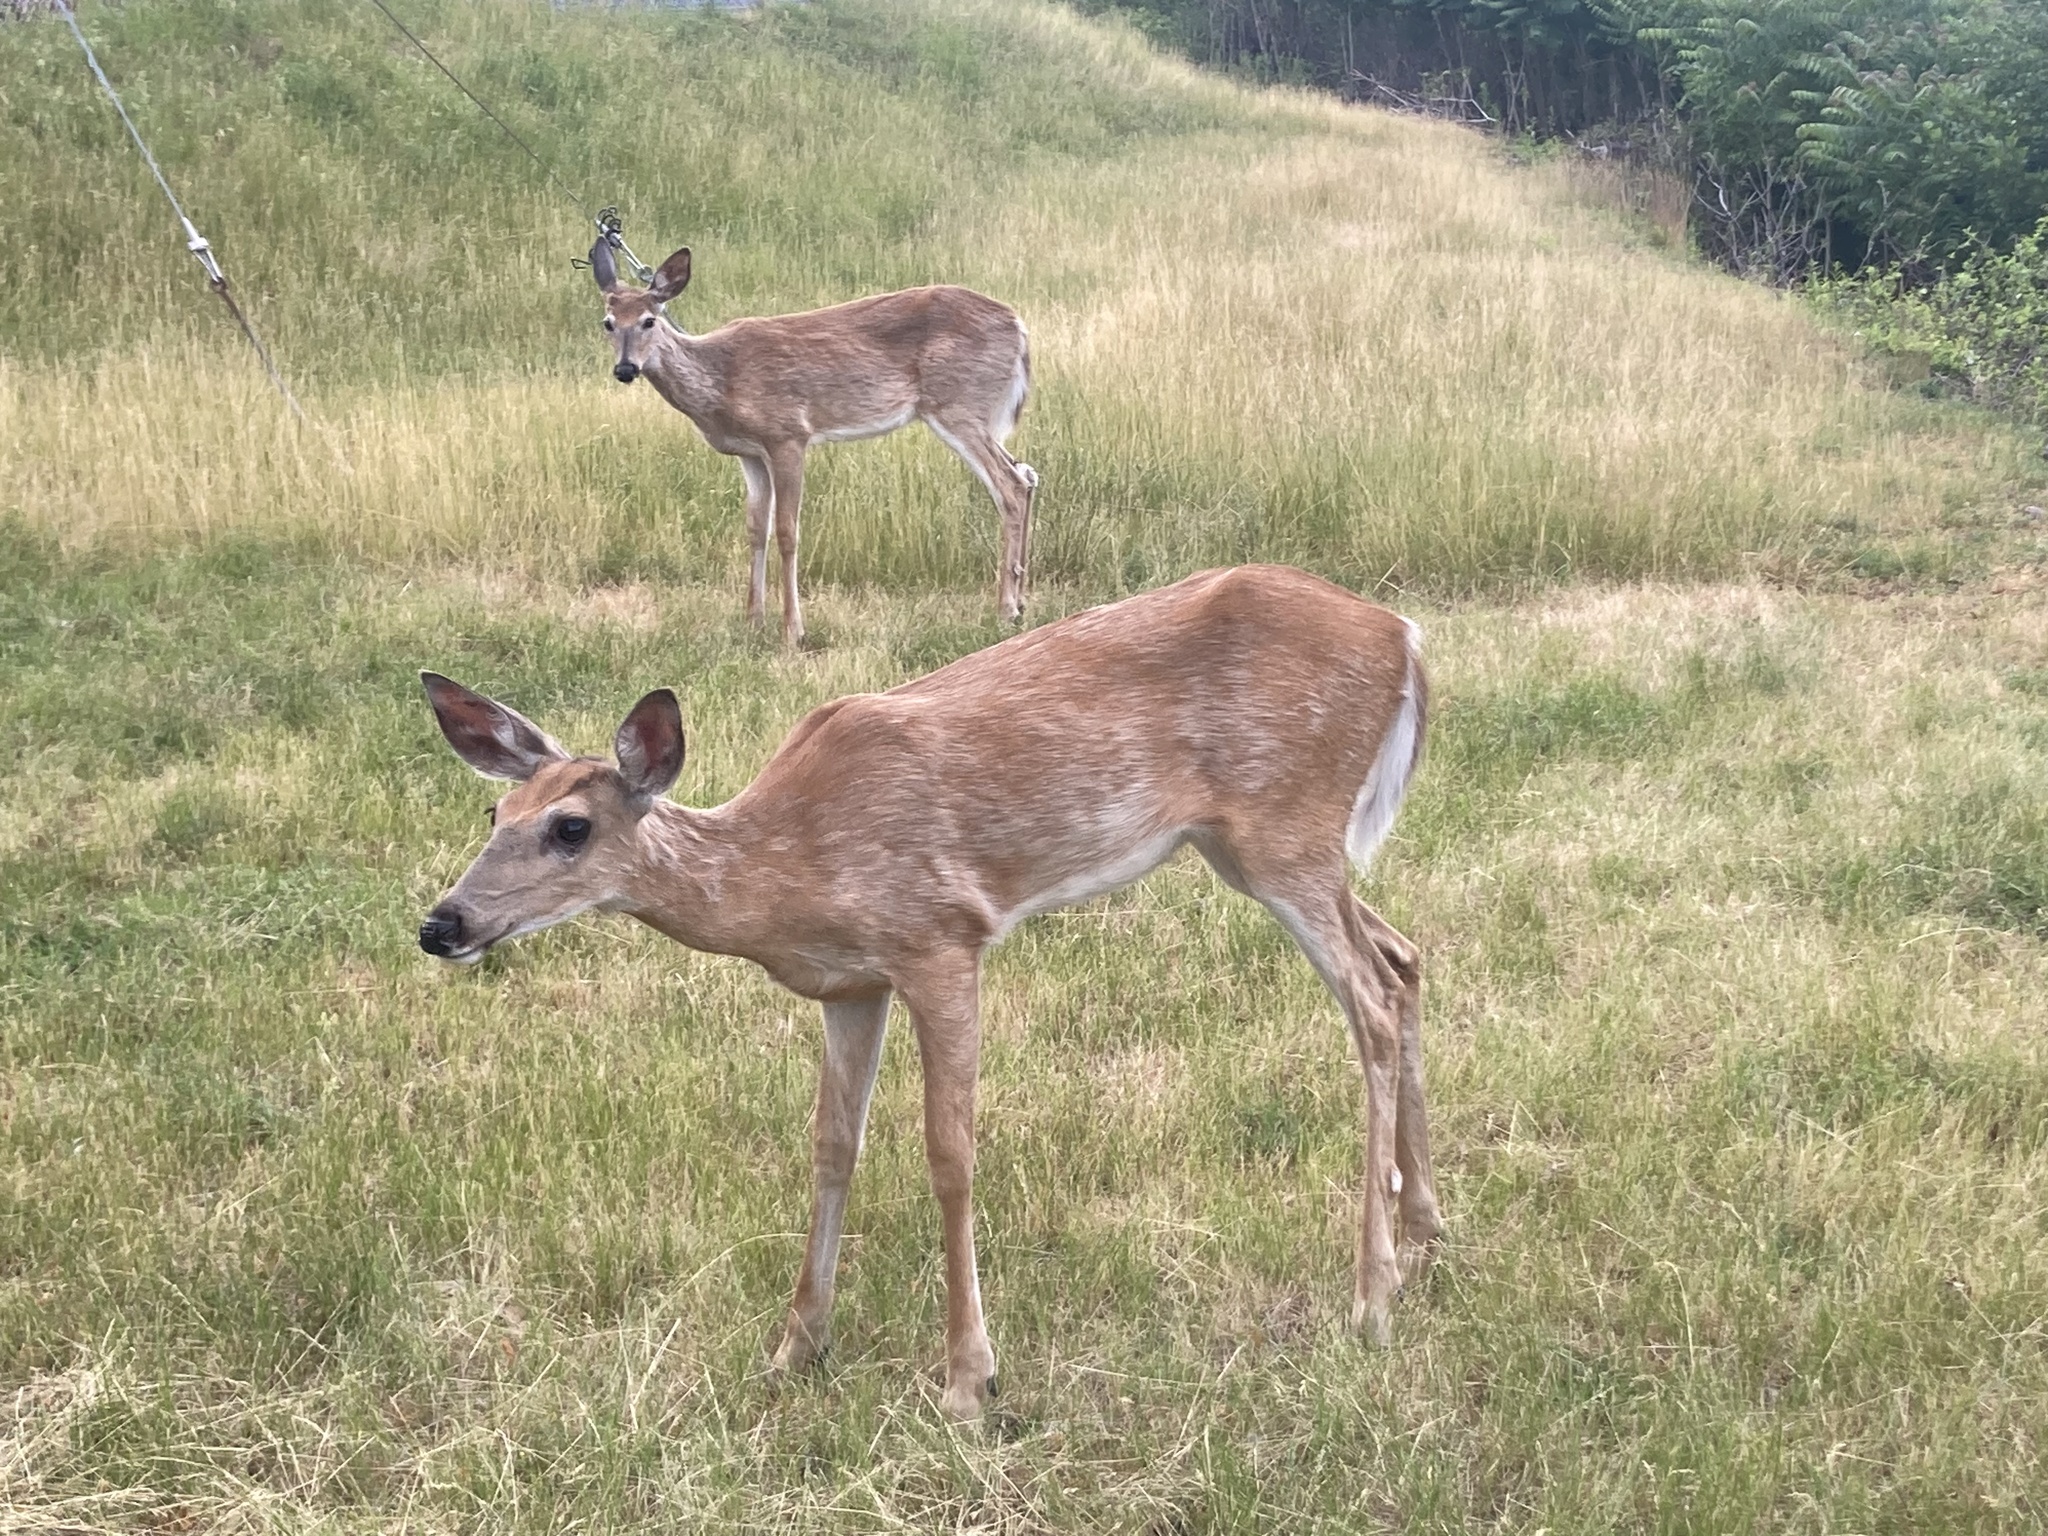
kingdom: Animalia
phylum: Chordata
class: Mammalia
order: Artiodactyla
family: Cervidae
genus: Odocoileus
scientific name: Odocoileus virginianus
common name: White-tailed deer
